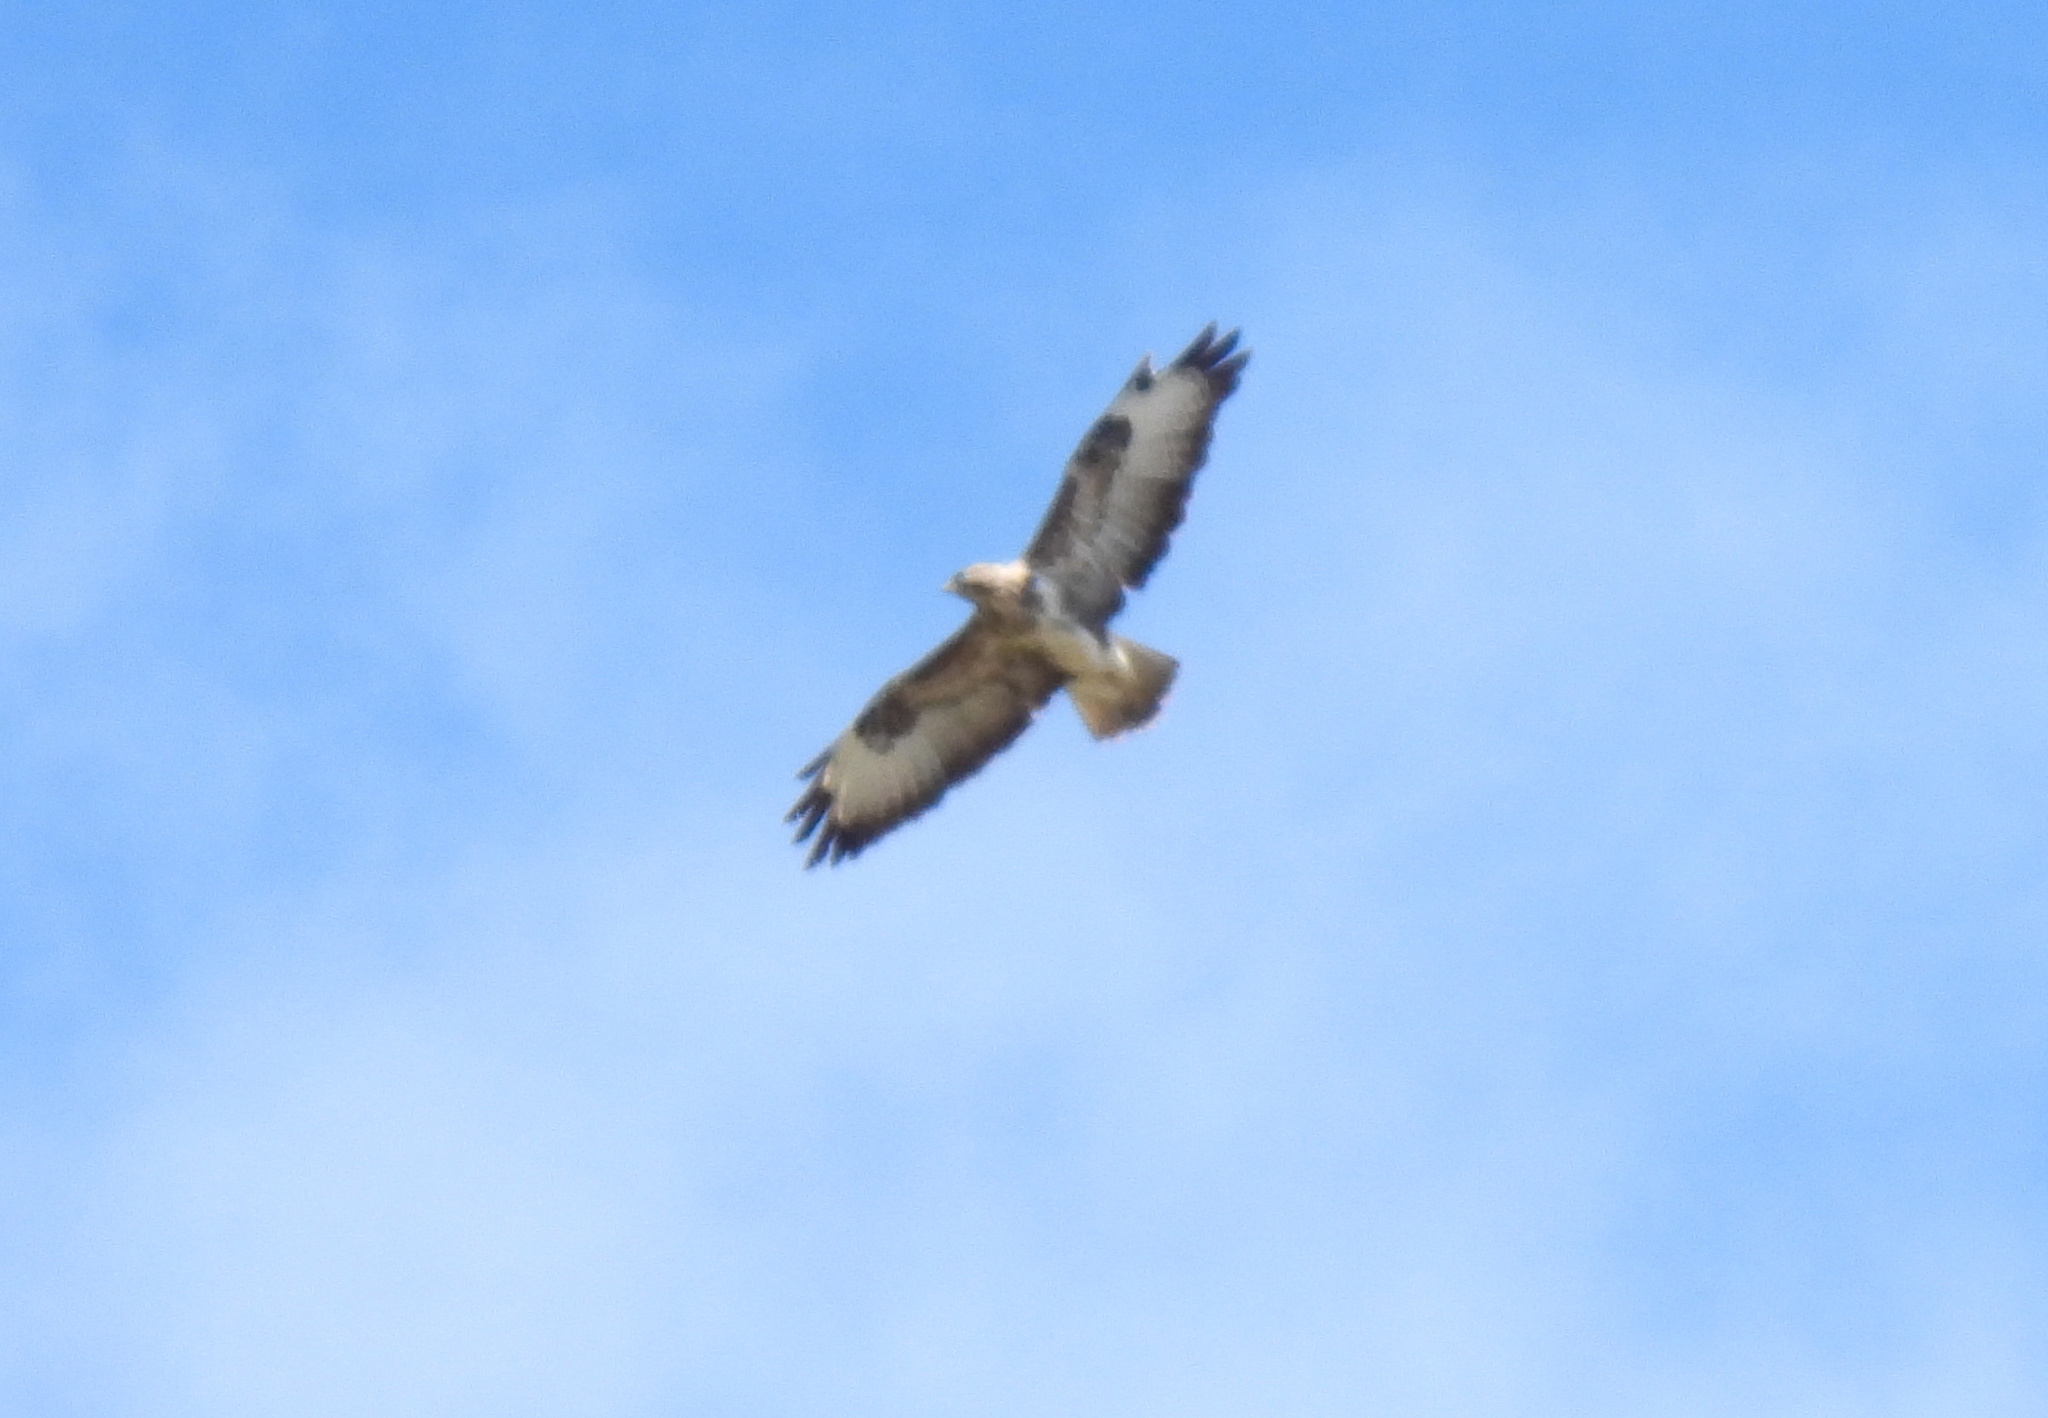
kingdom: Animalia
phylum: Chordata
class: Aves
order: Accipitriformes
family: Accipitridae
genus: Buteo
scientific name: Buteo buteo
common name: Common buzzard
